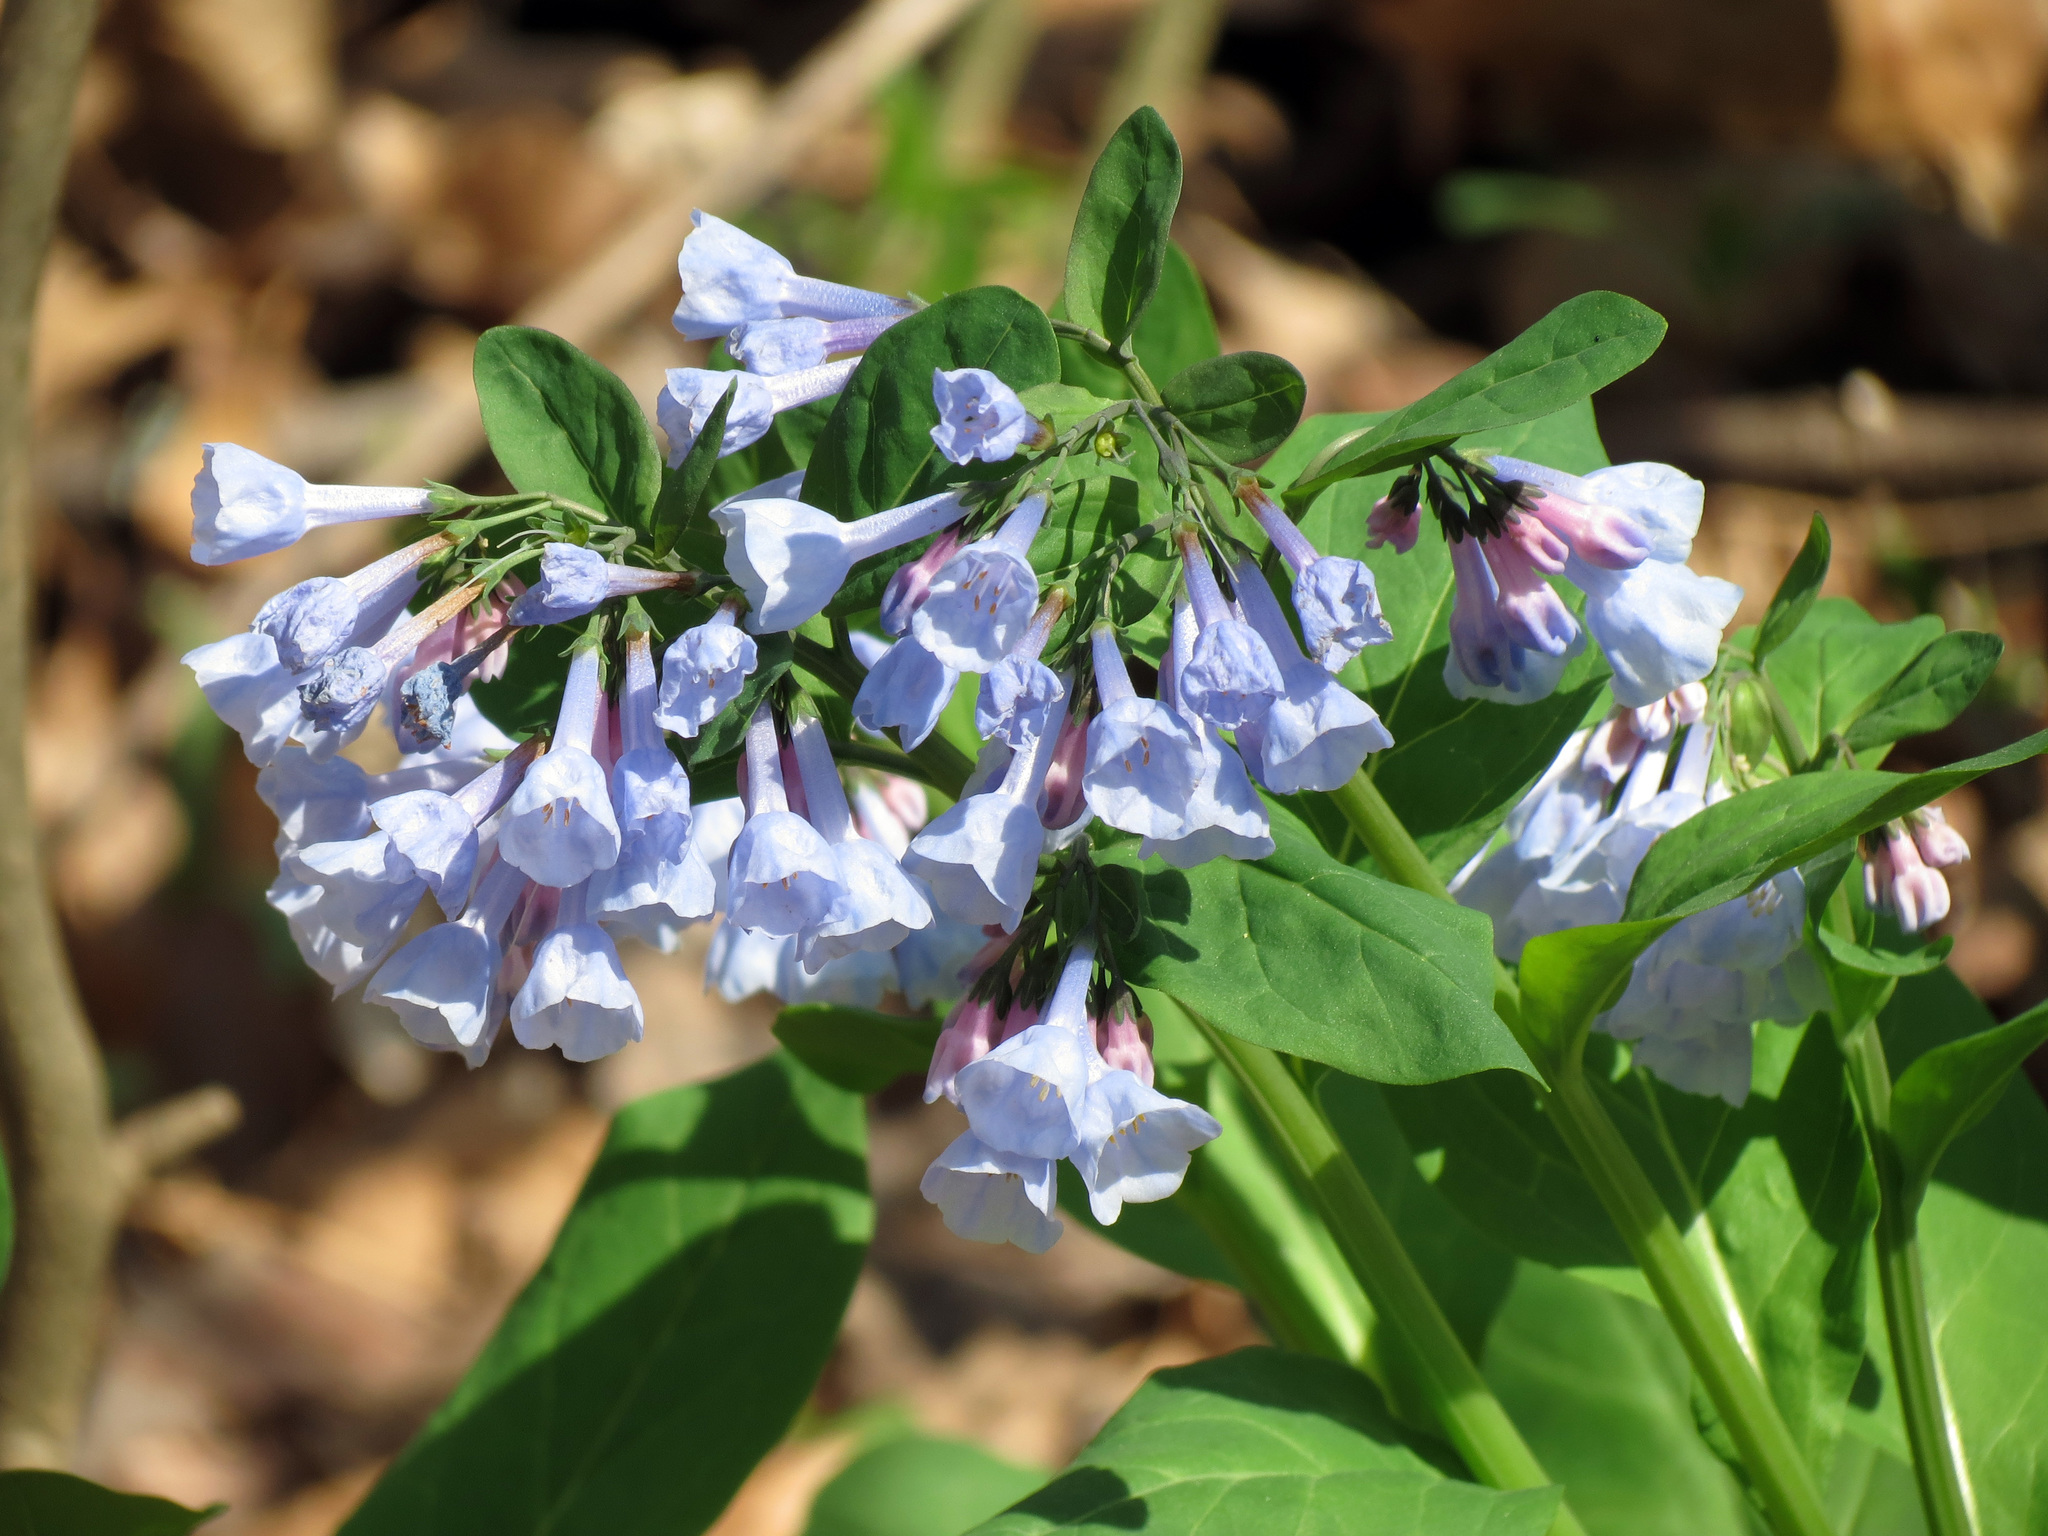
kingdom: Plantae
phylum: Tracheophyta
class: Magnoliopsida
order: Boraginales
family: Boraginaceae
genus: Mertensia
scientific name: Mertensia virginica
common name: Virginia bluebells
